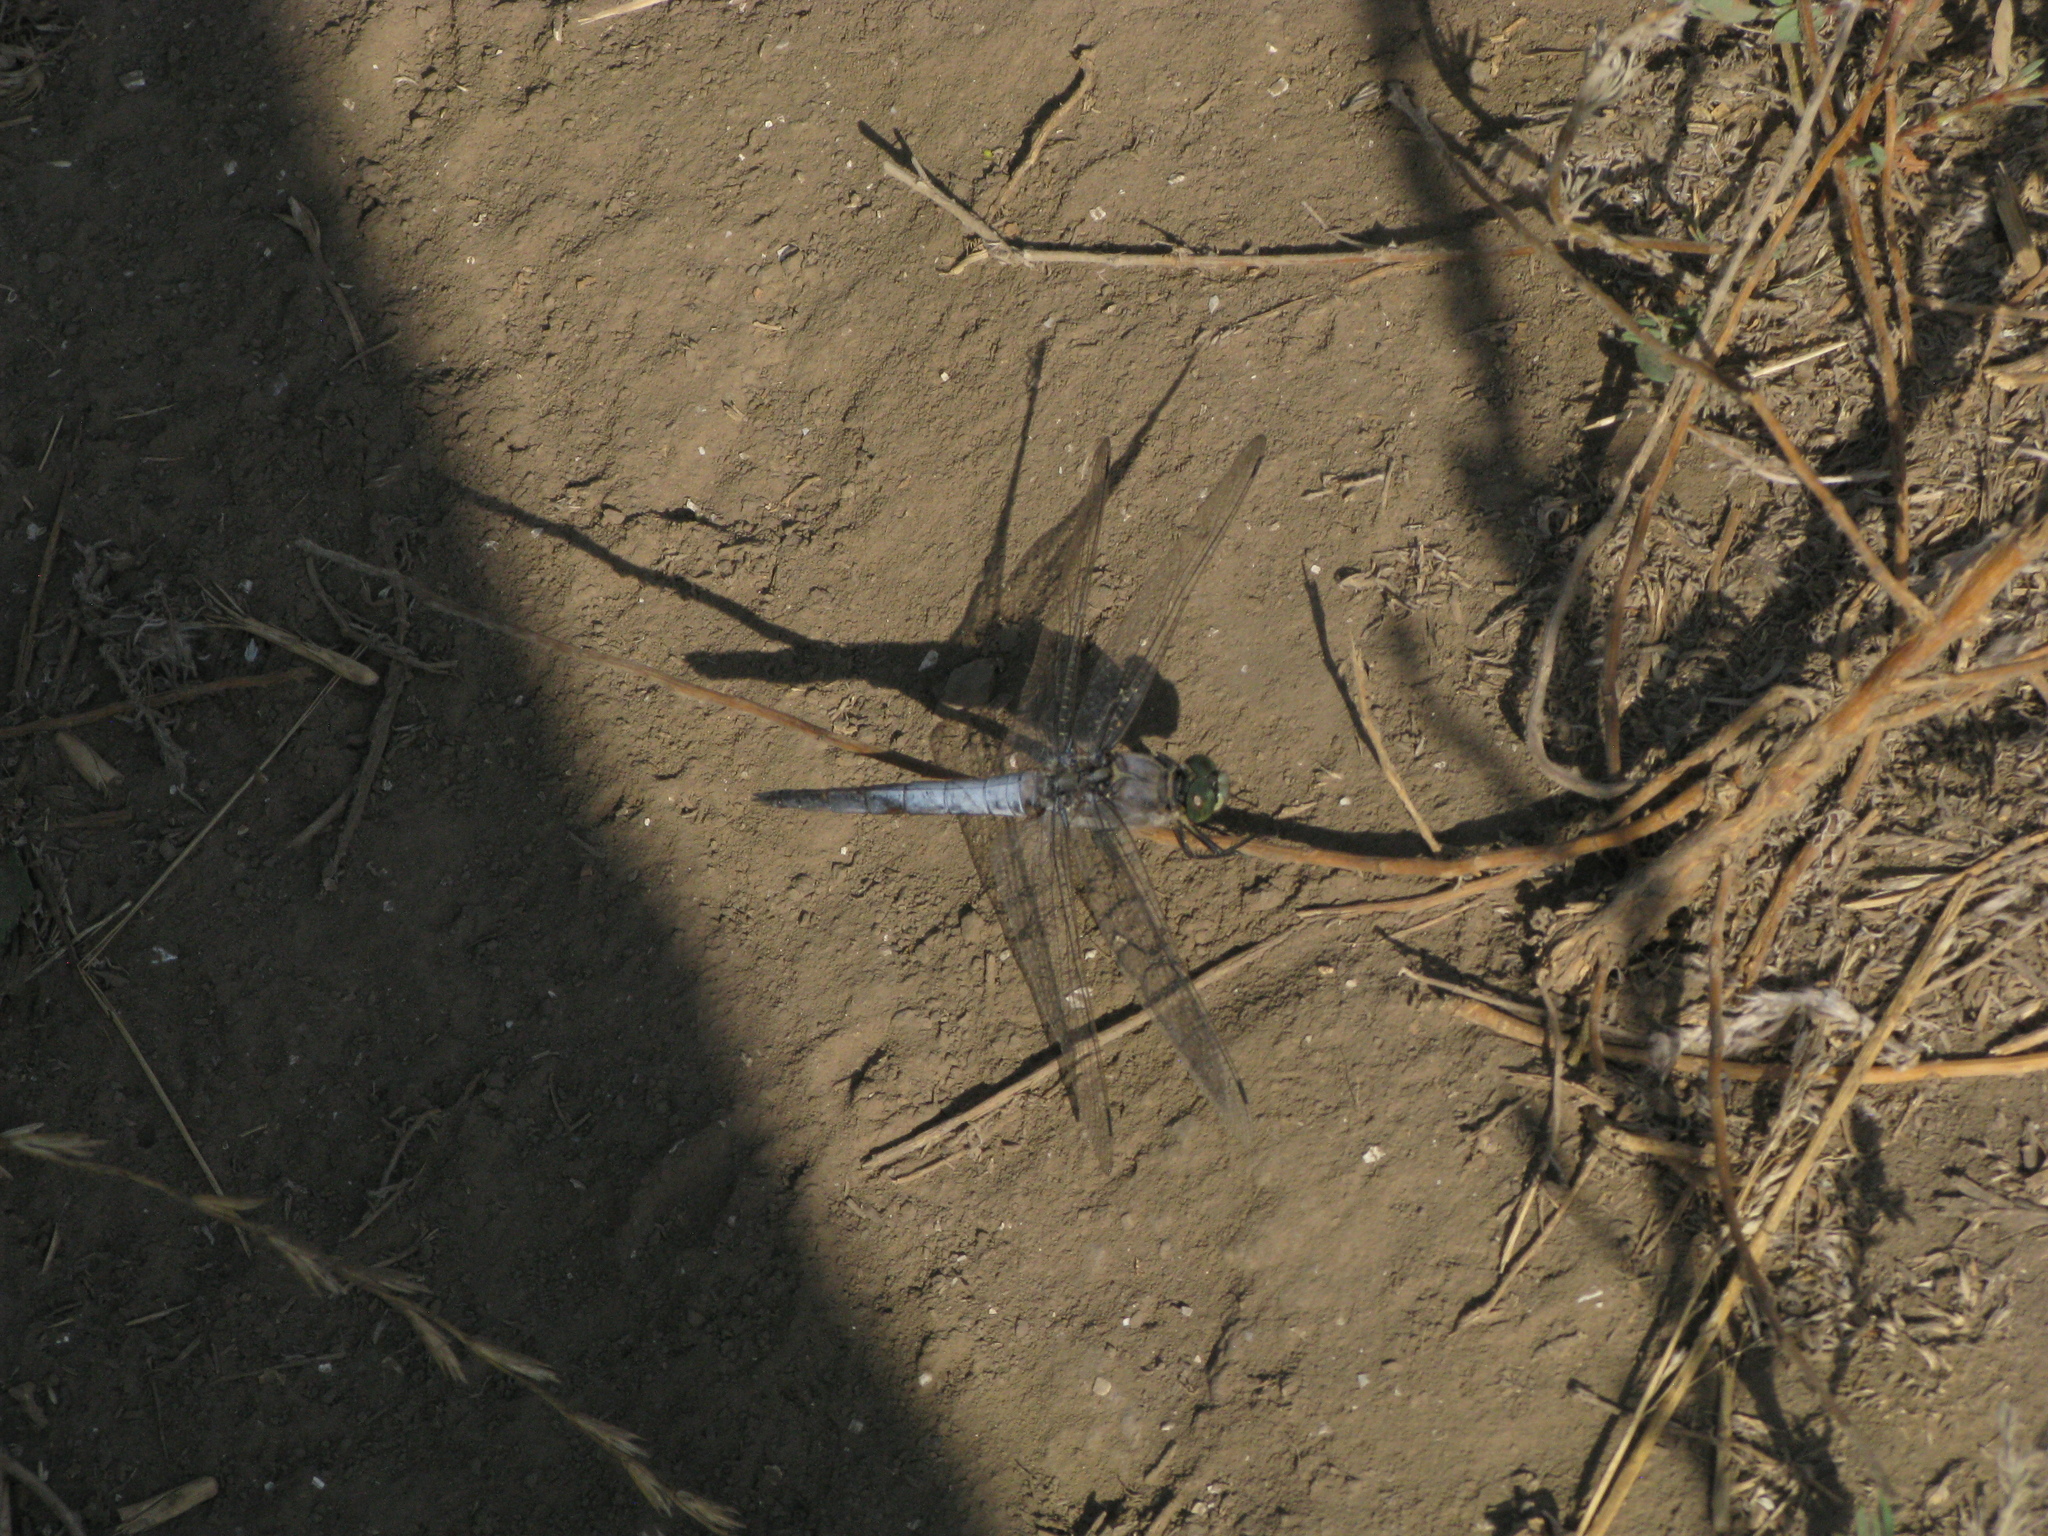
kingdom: Animalia
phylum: Arthropoda
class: Insecta
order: Odonata
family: Libellulidae
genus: Orthetrum
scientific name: Orthetrum cancellatum
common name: Black-tailed skimmer
